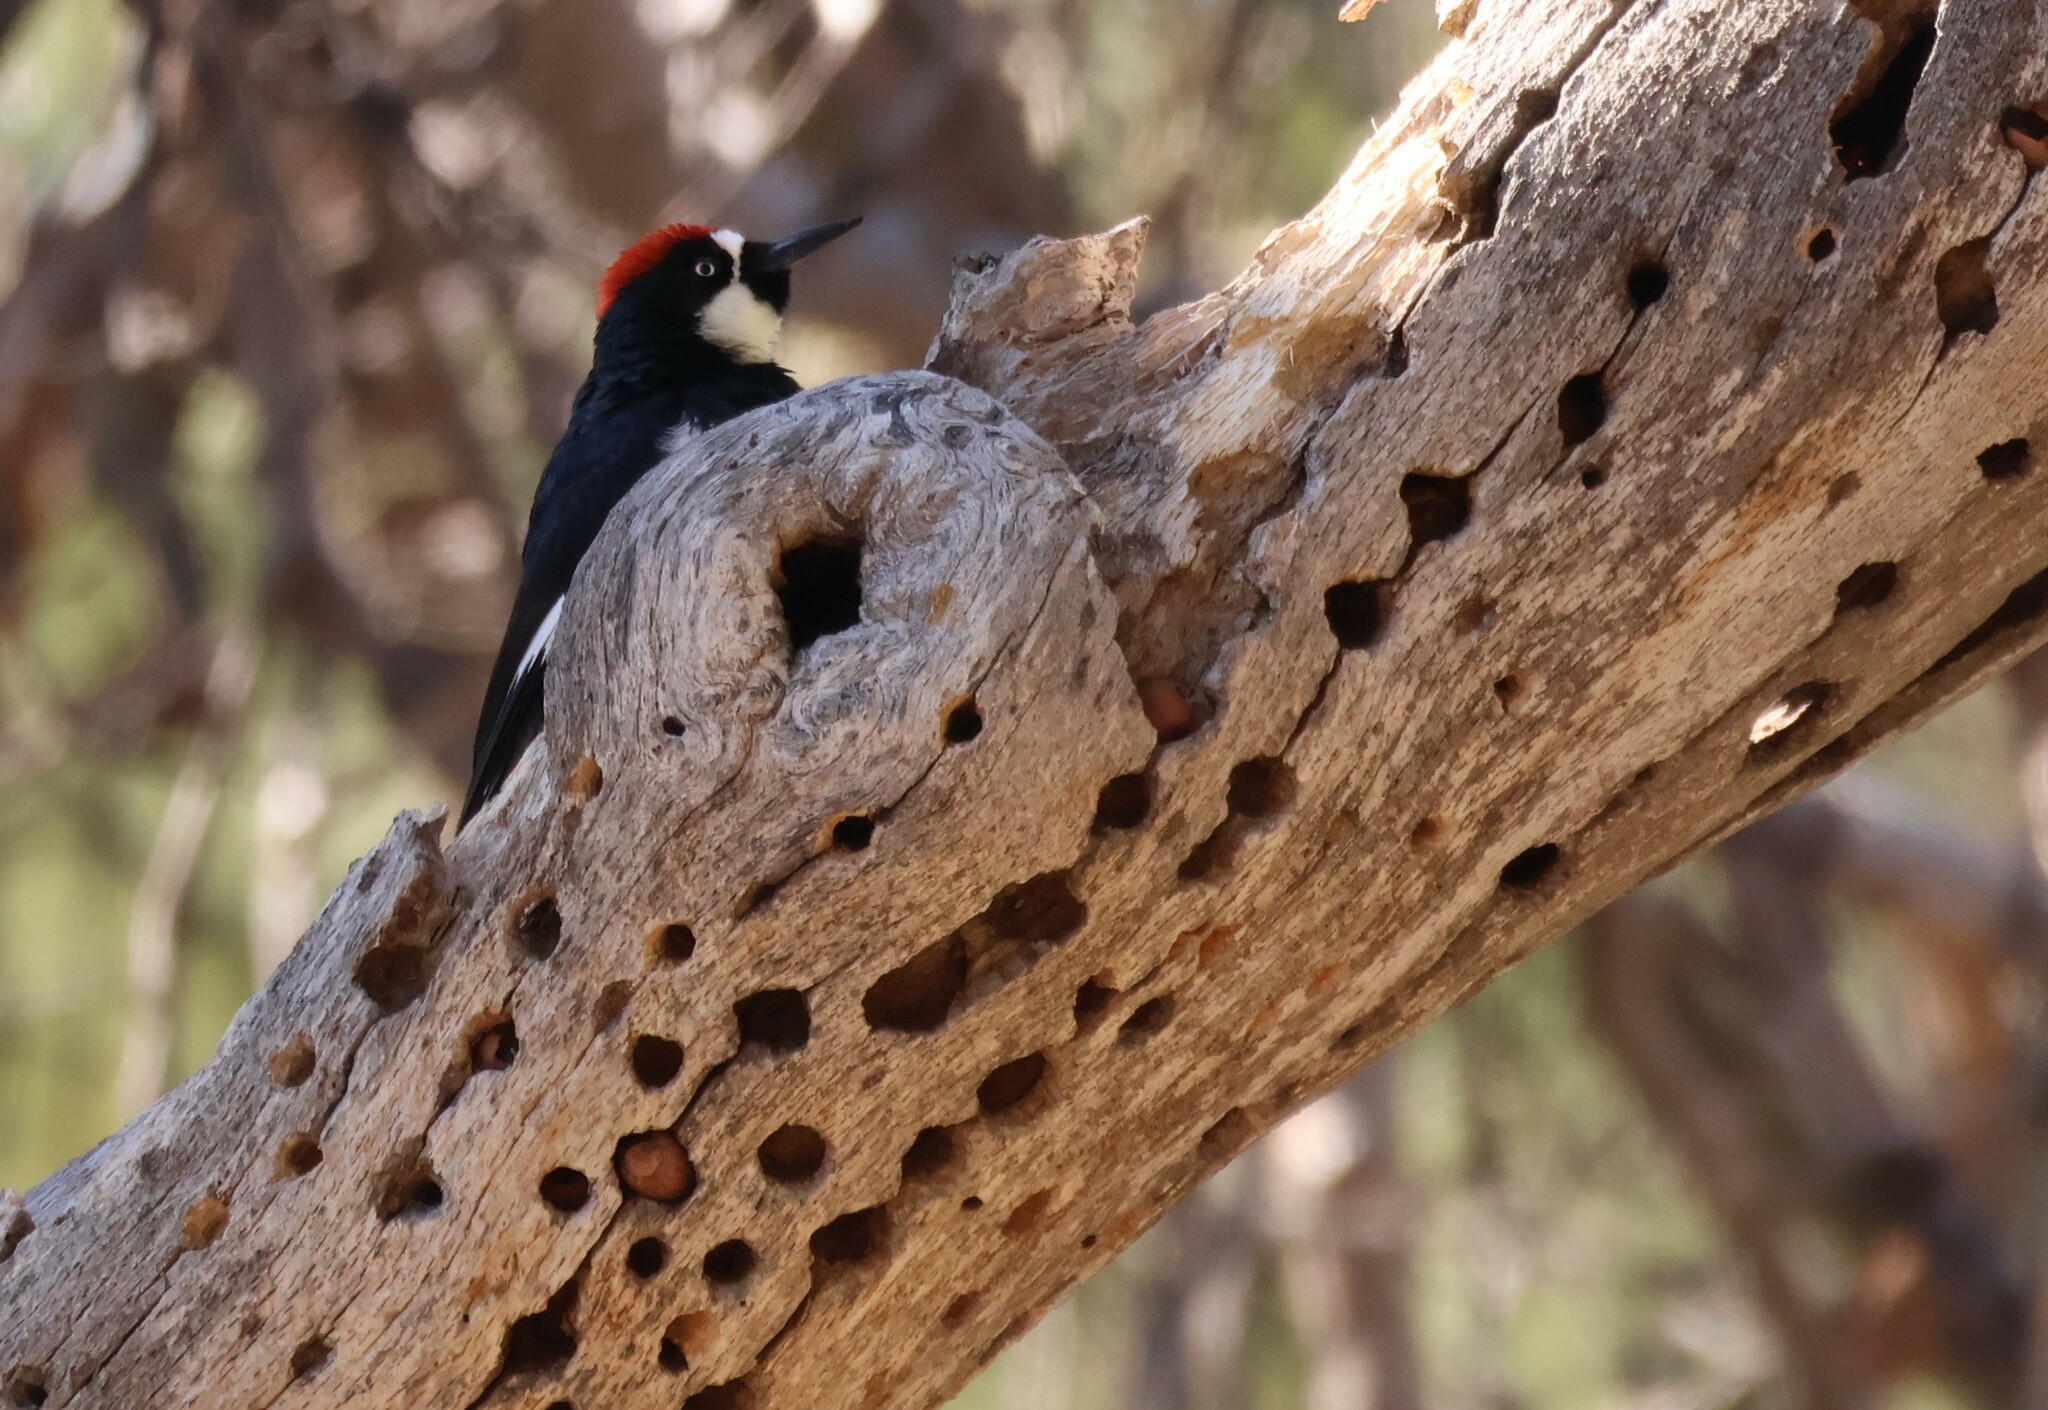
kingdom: Animalia
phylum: Chordata
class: Aves
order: Piciformes
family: Picidae
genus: Melanerpes
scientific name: Melanerpes formicivorus
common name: Acorn woodpecker
